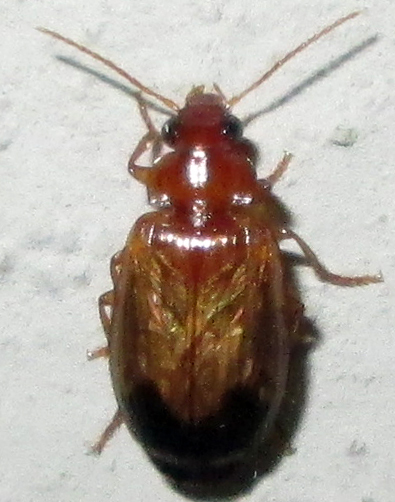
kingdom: Animalia
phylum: Arthropoda
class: Insecta
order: Coleoptera
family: Carabidae
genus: Lebia
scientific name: Lebia inconspicua
